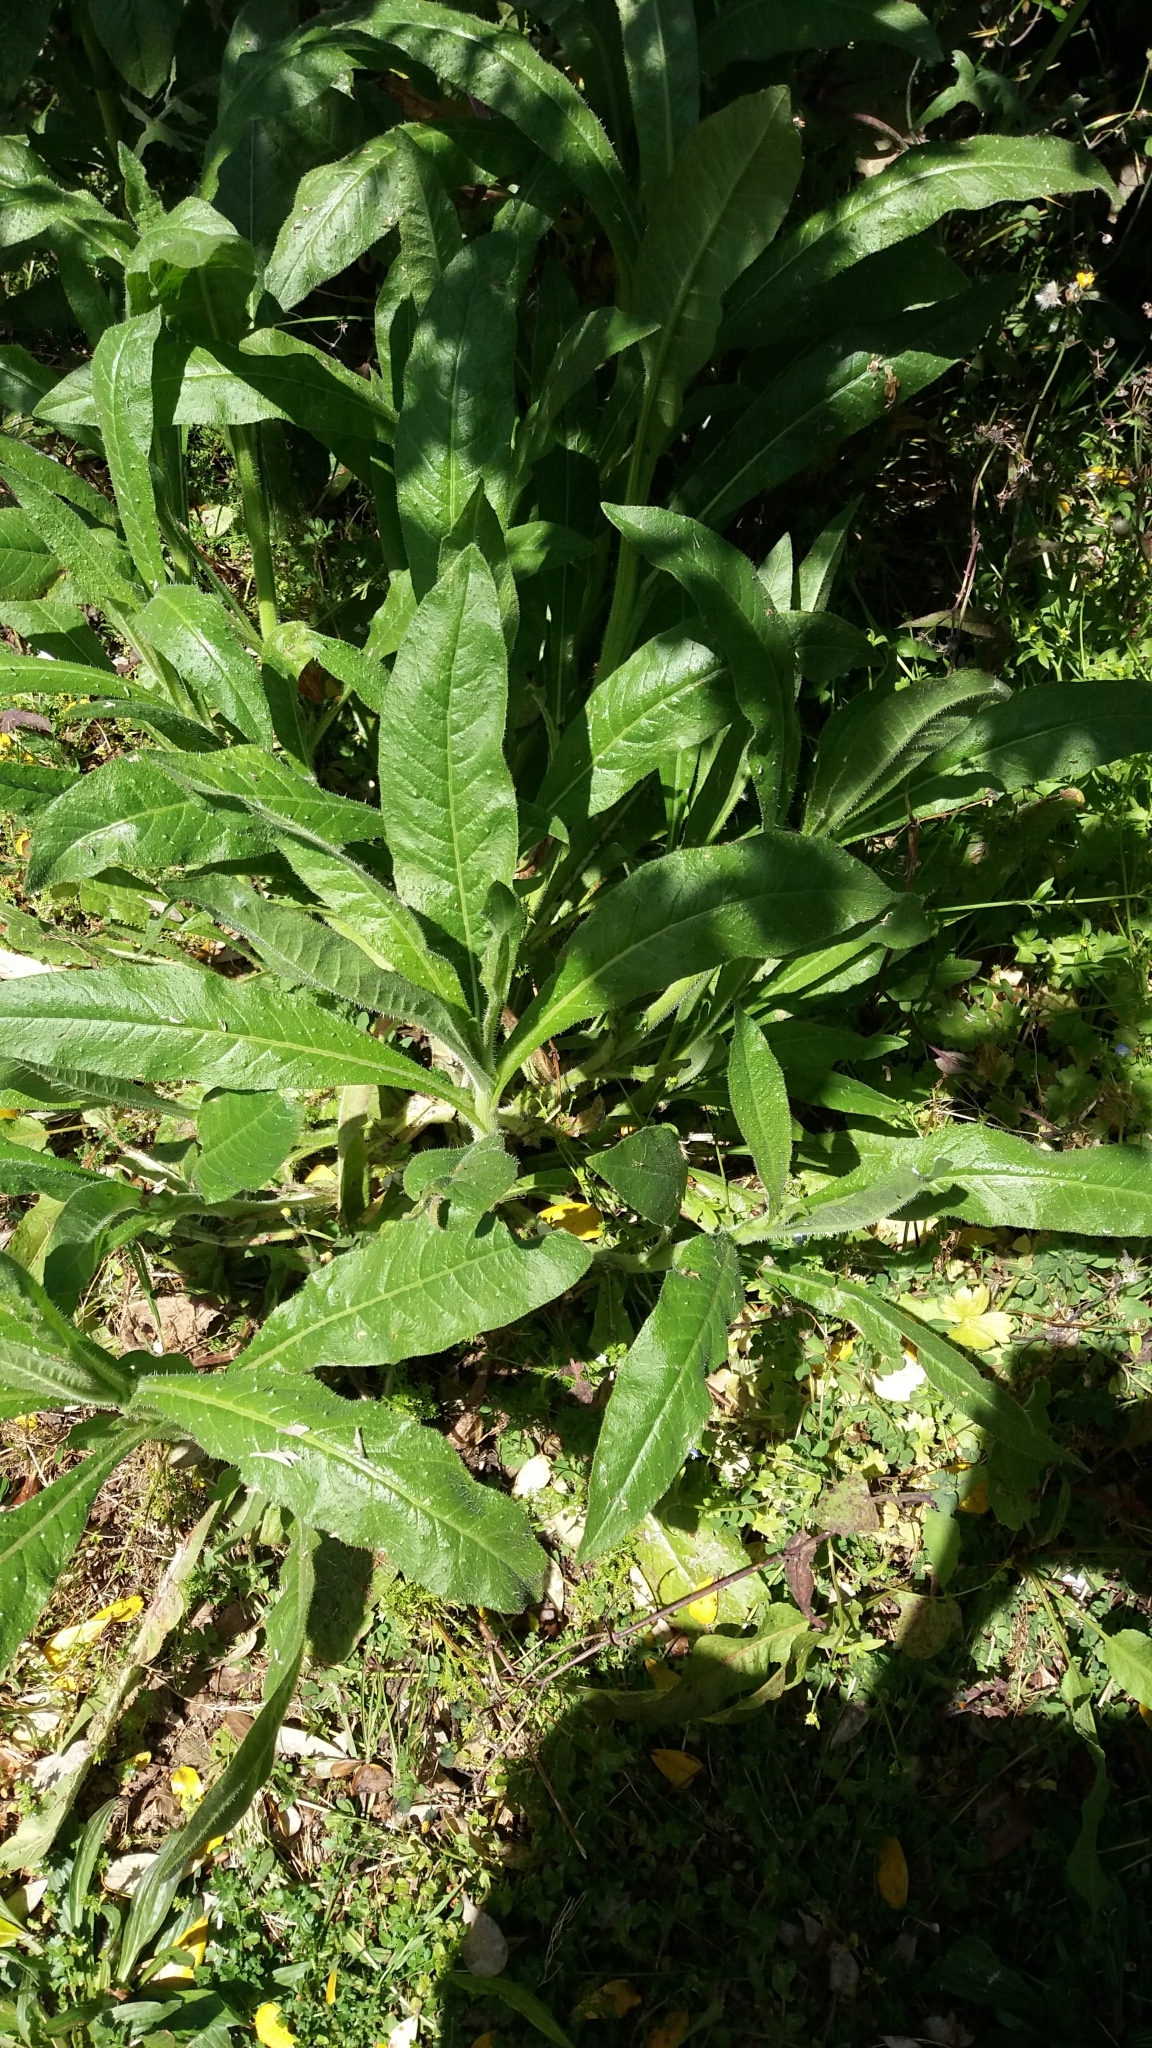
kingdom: Plantae
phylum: Tracheophyta
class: Magnoliopsida
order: Asterales
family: Asteraceae
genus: Helminthotheca
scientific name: Helminthotheca echioides
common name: Ox-tongue
